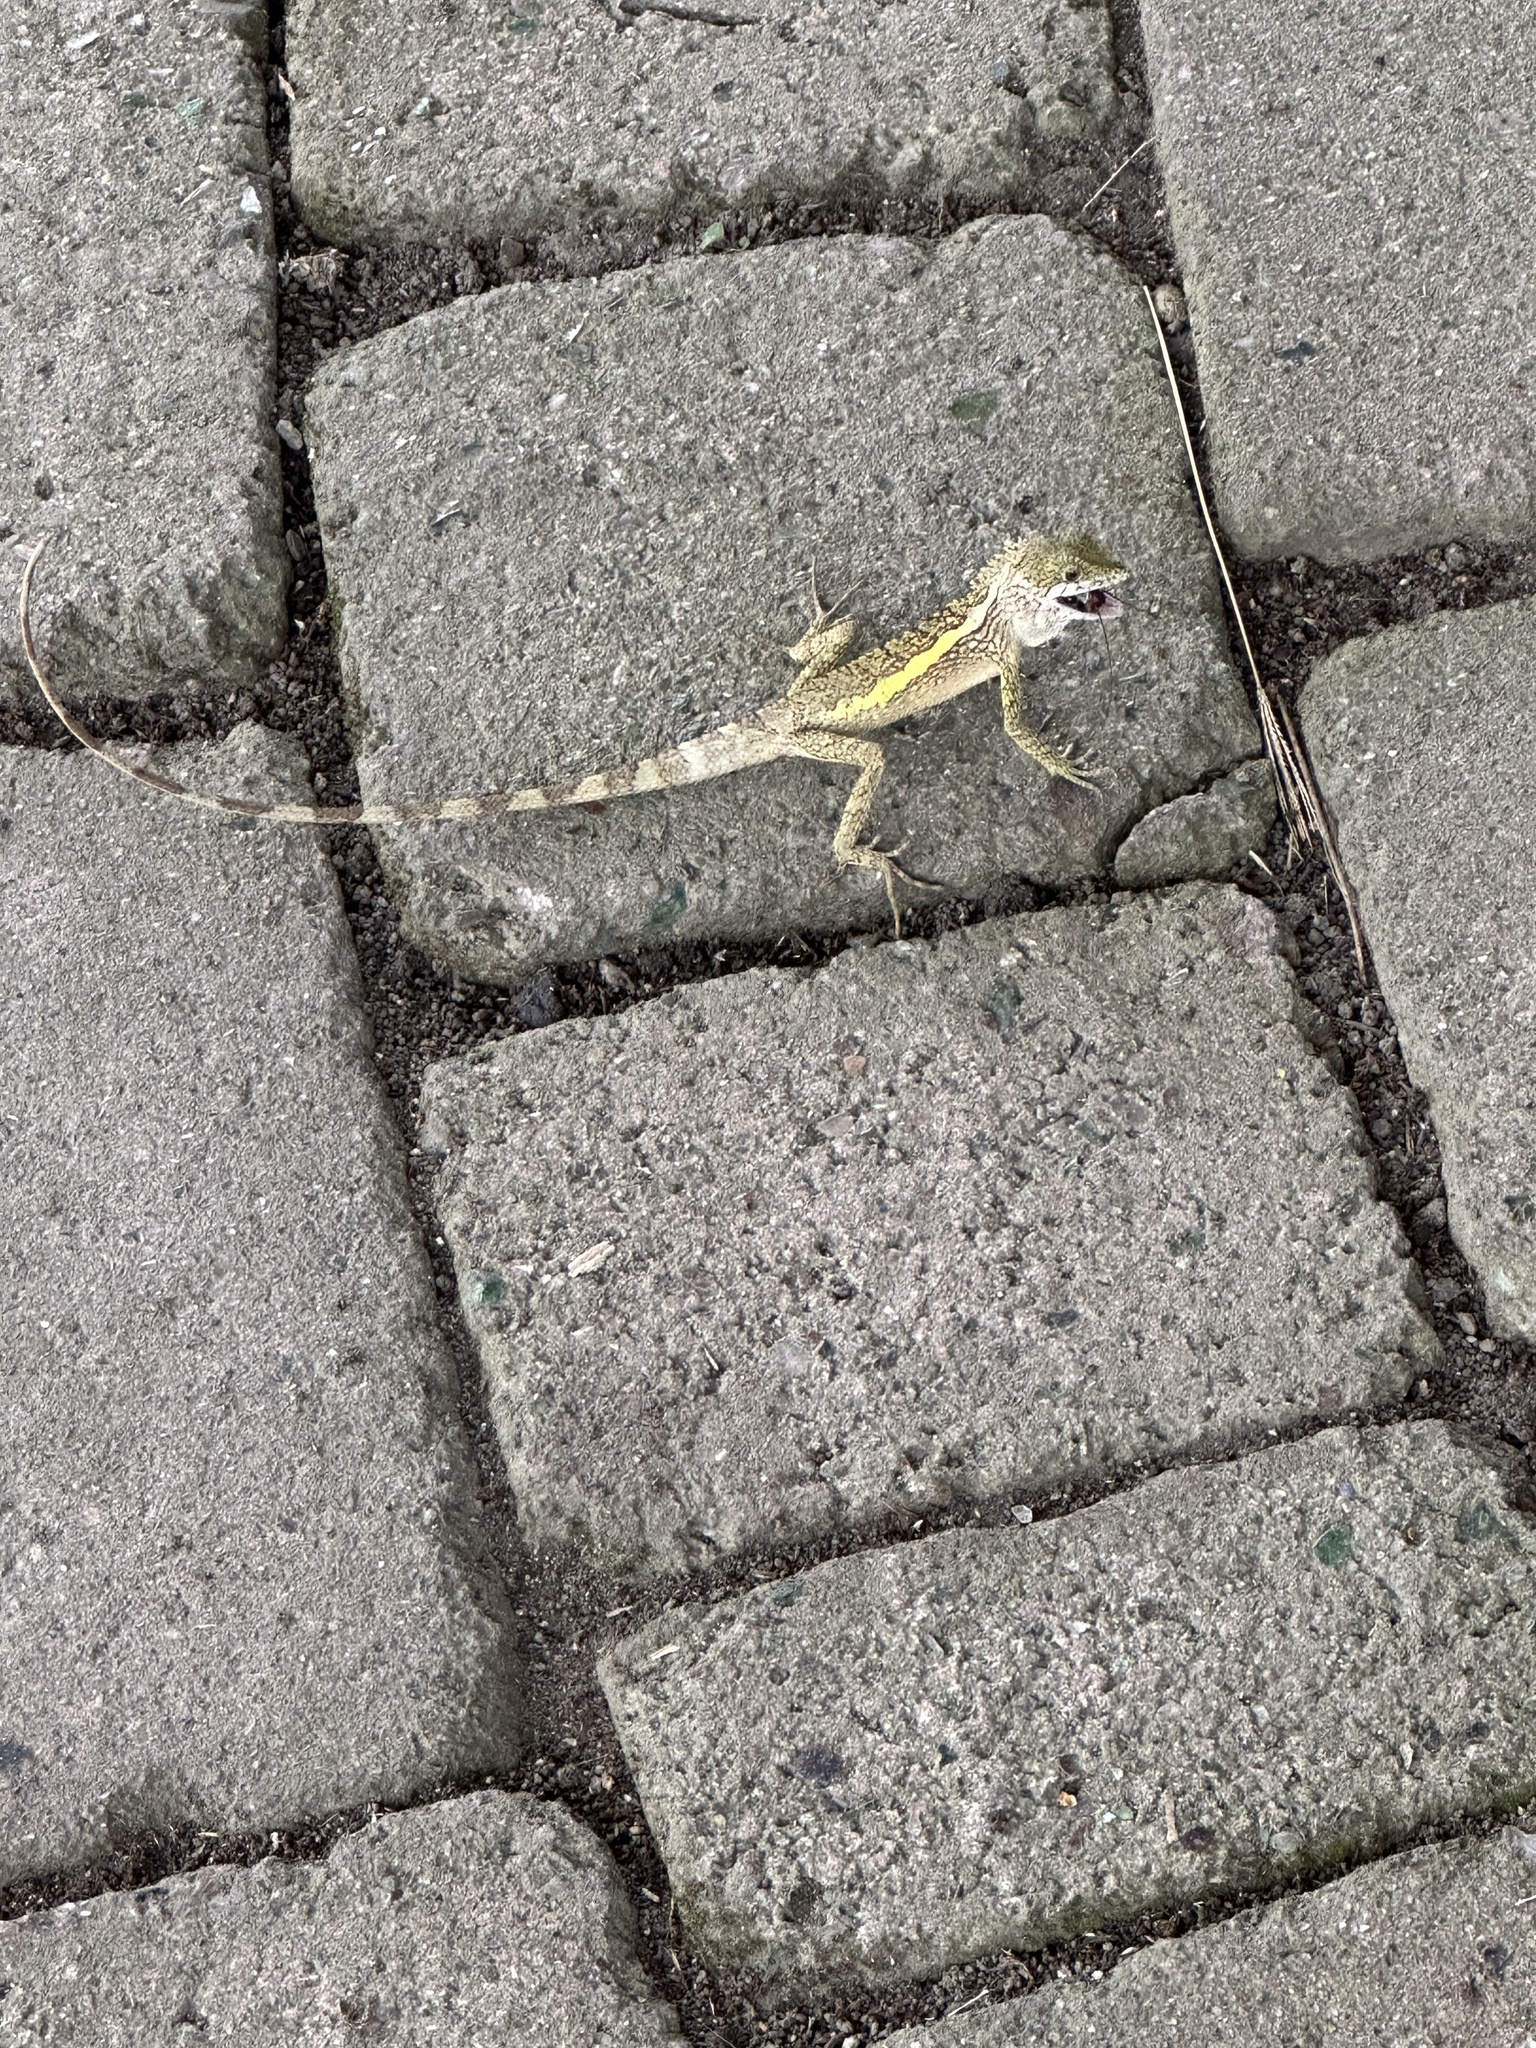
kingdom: Animalia
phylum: Chordata
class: Squamata
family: Agamidae
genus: Diploderma
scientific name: Diploderma swinhonis
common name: Taiwan japalure
